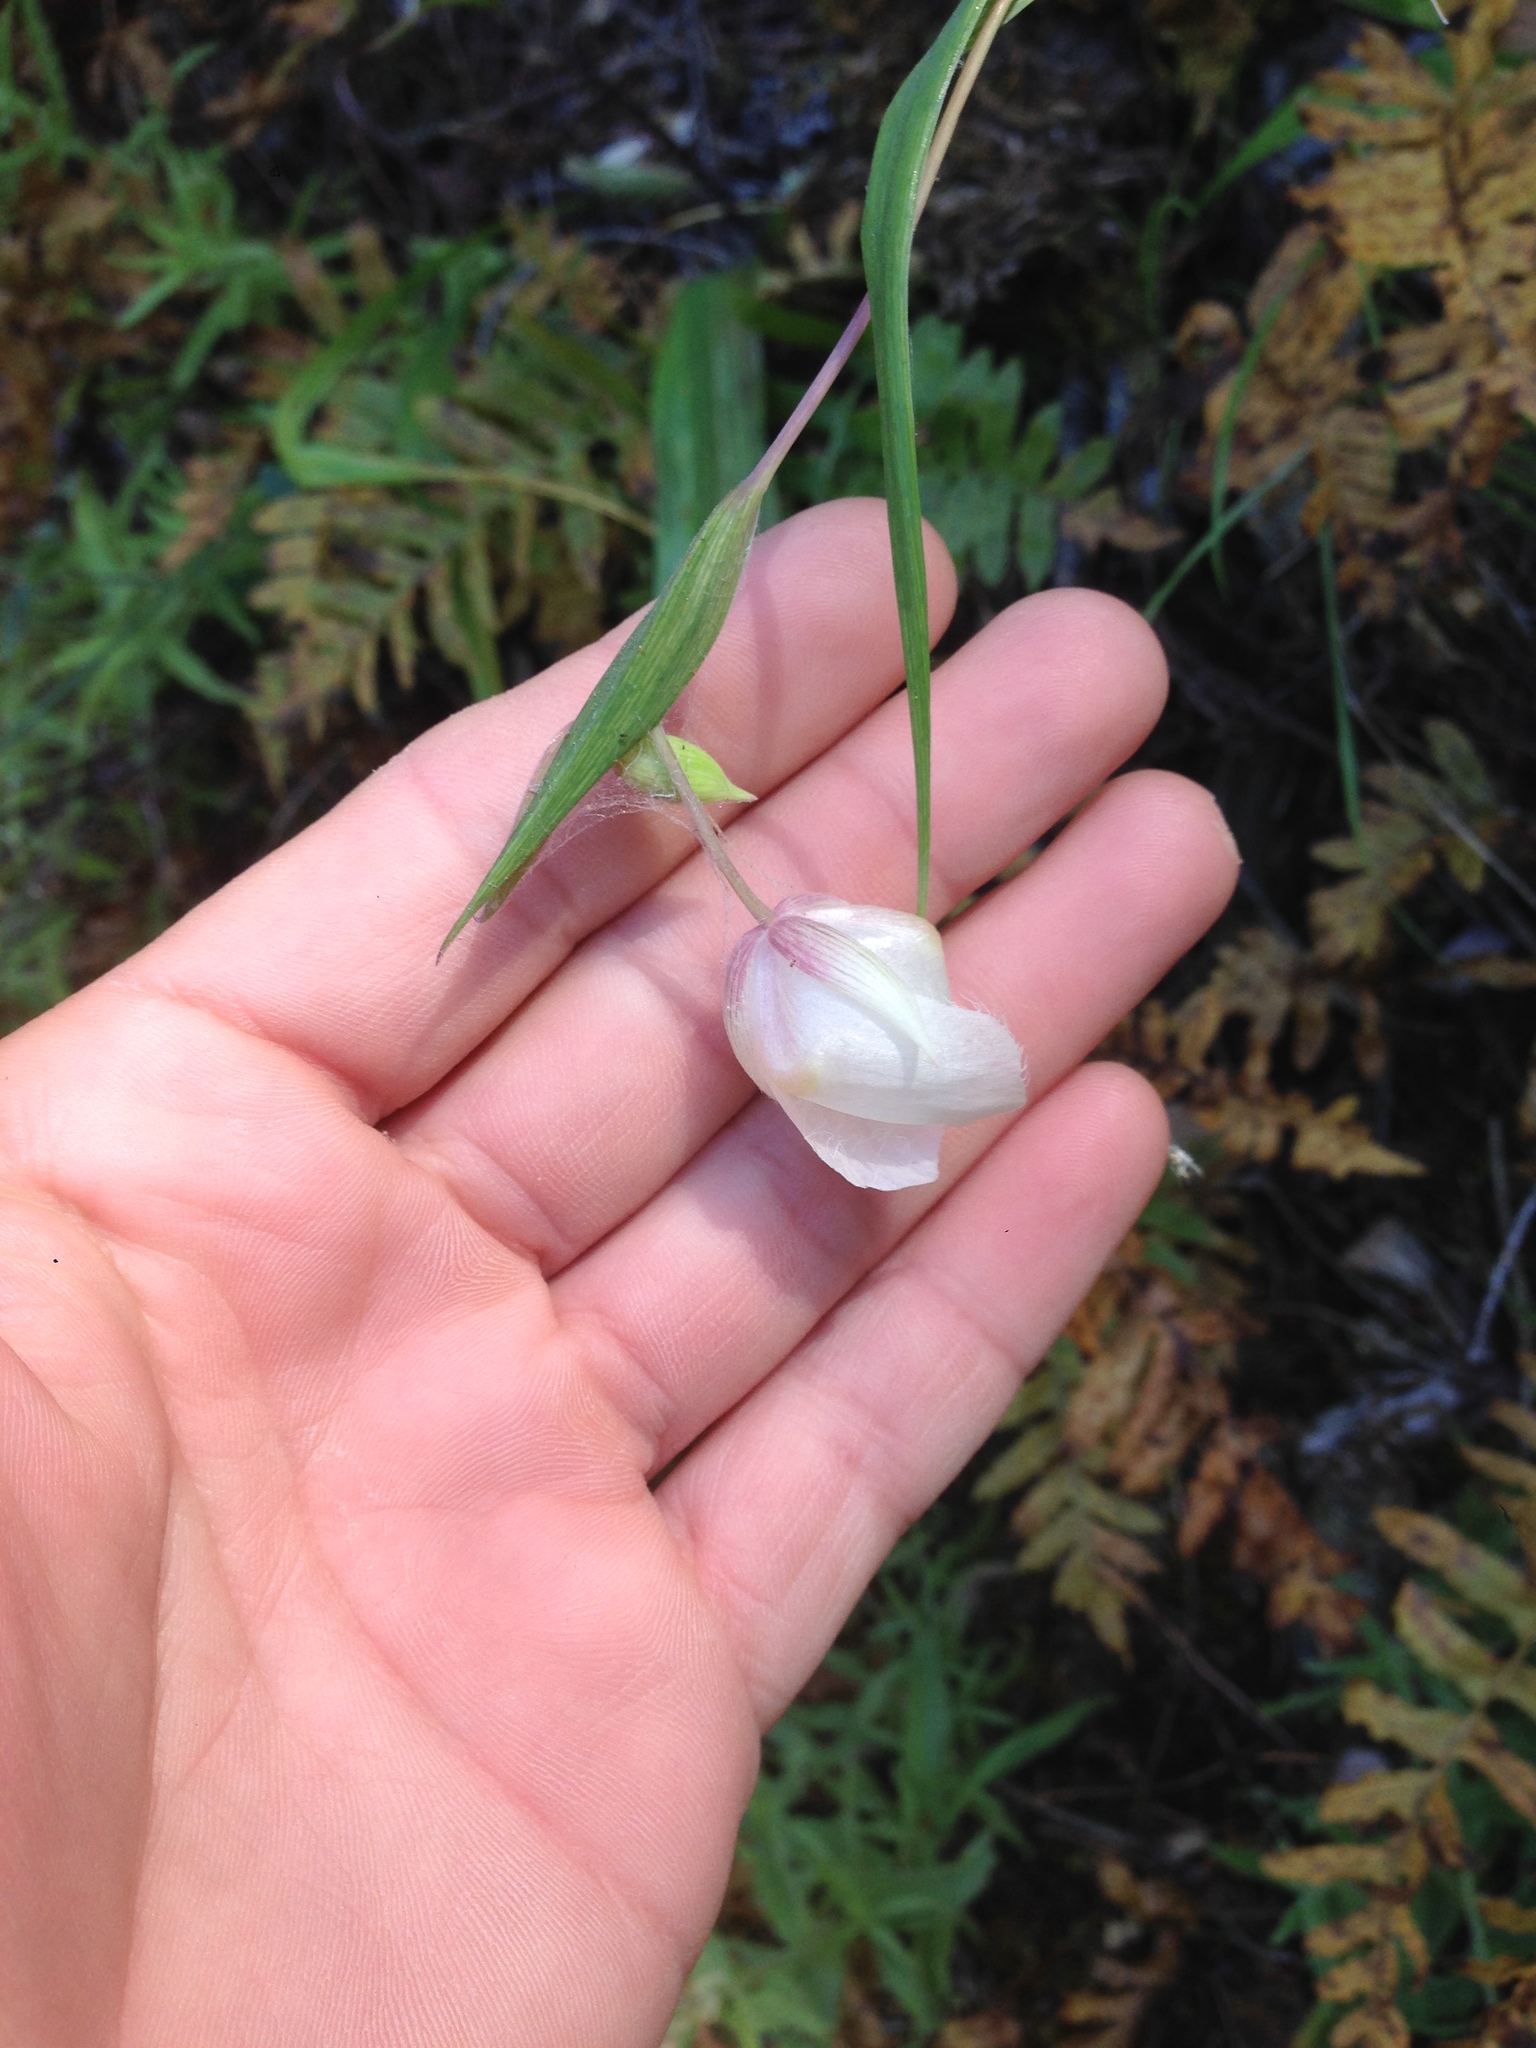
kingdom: Plantae
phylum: Tracheophyta
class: Liliopsida
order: Liliales
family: Liliaceae
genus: Calochortus
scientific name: Calochortus albus
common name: Fairy-lantern
